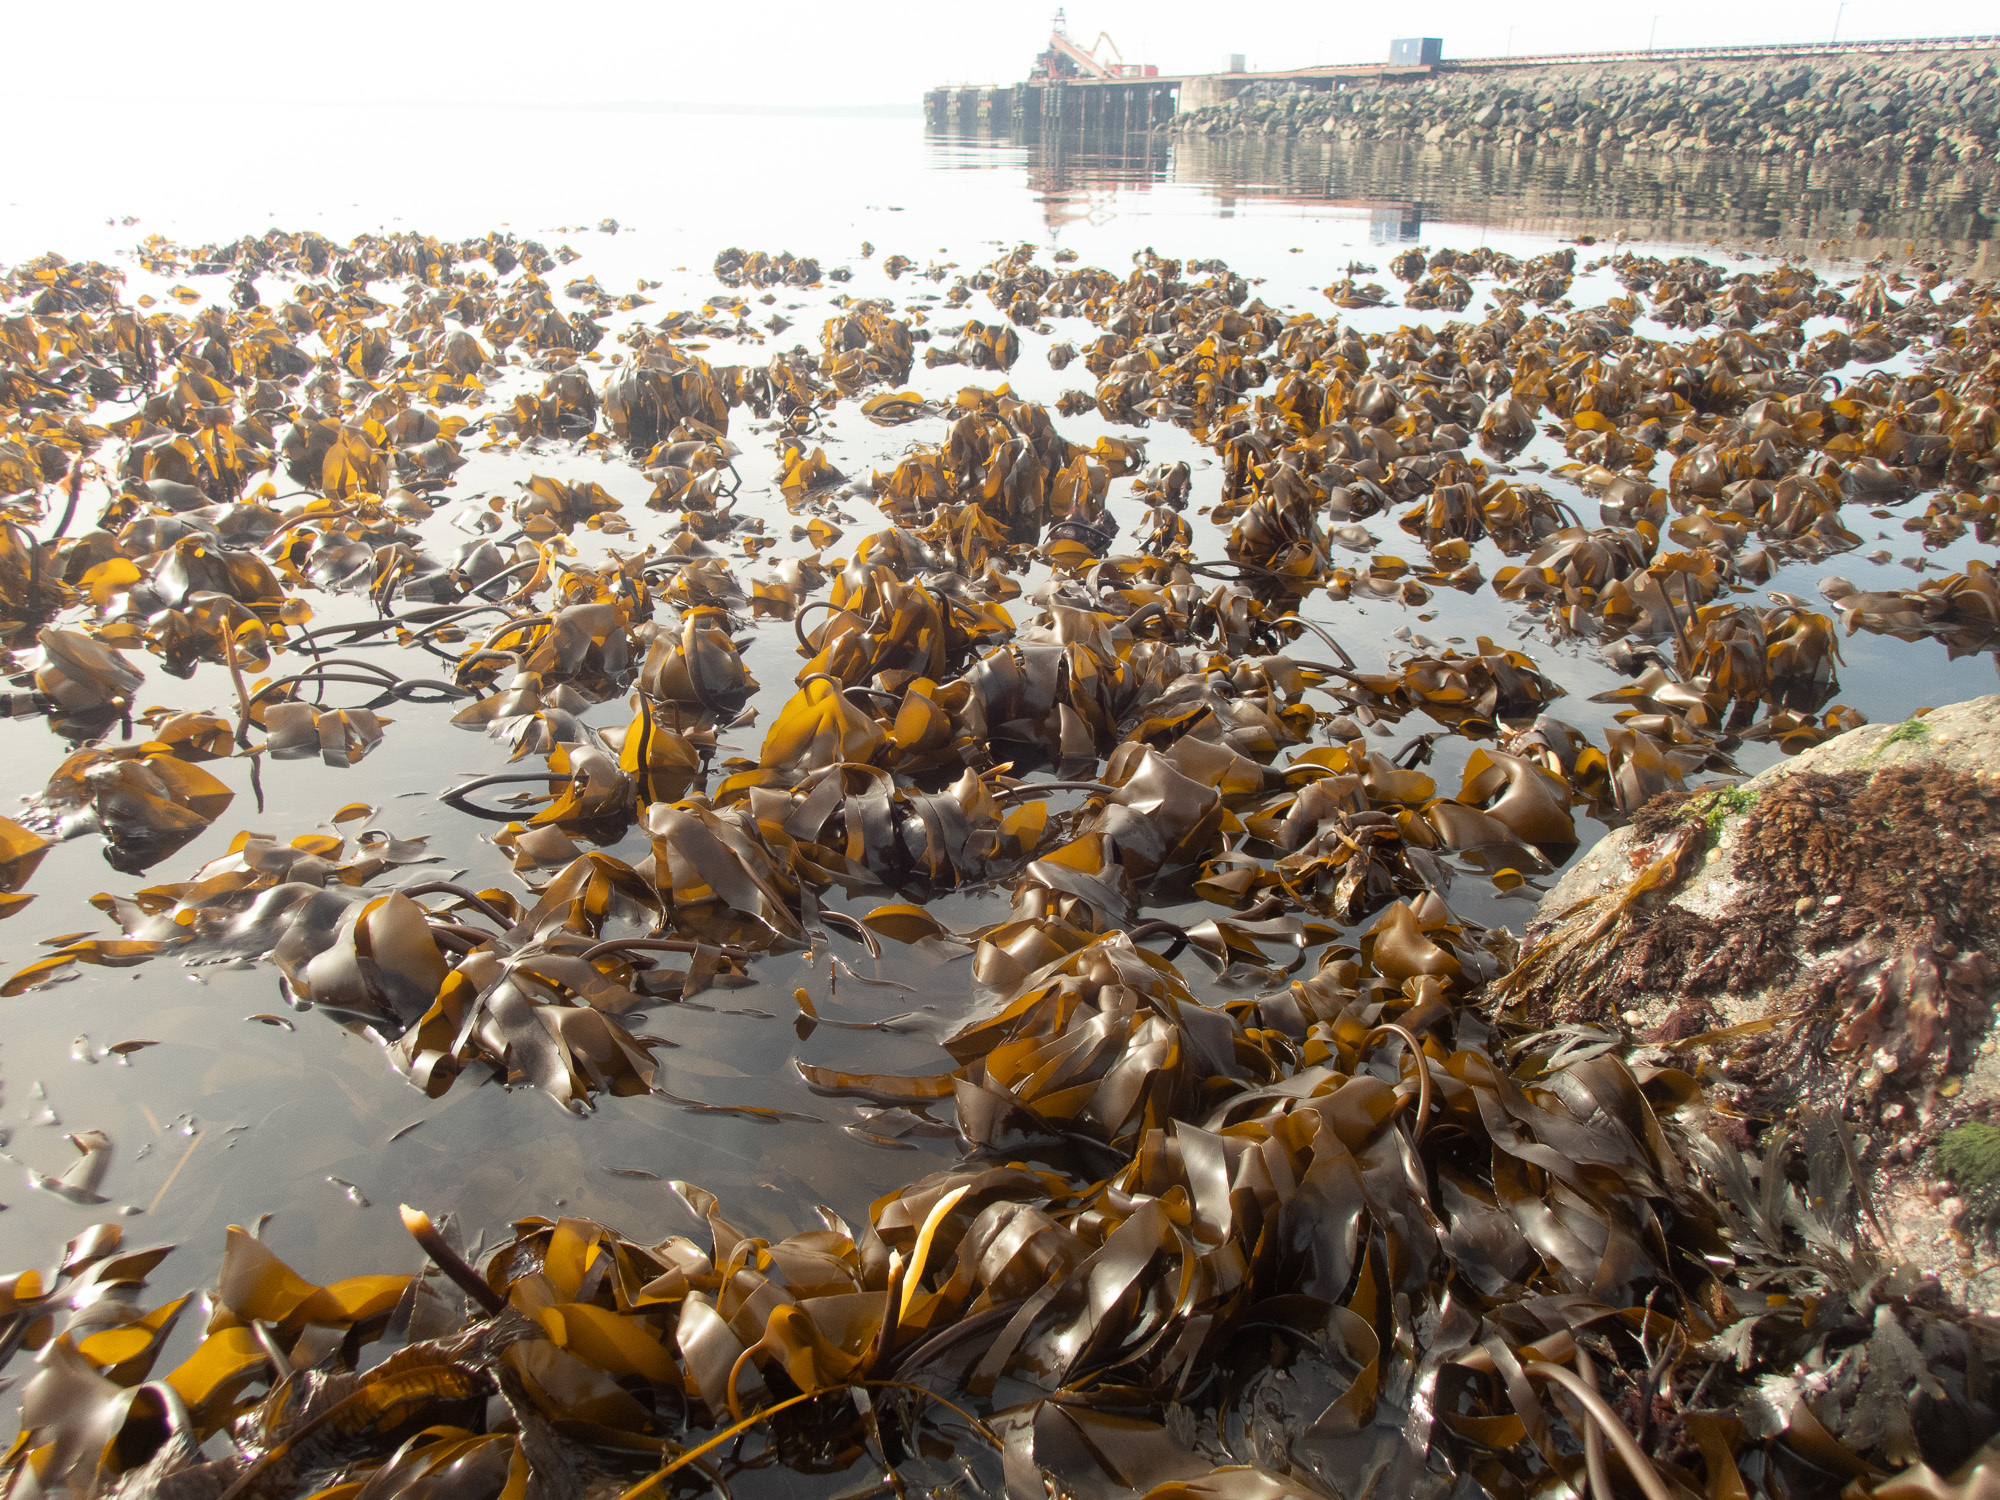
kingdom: Chromista
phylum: Ochrophyta
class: Phaeophyceae
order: Laminariales
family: Laminariaceae
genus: Laminaria
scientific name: Laminaria digitata
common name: Oarweed
